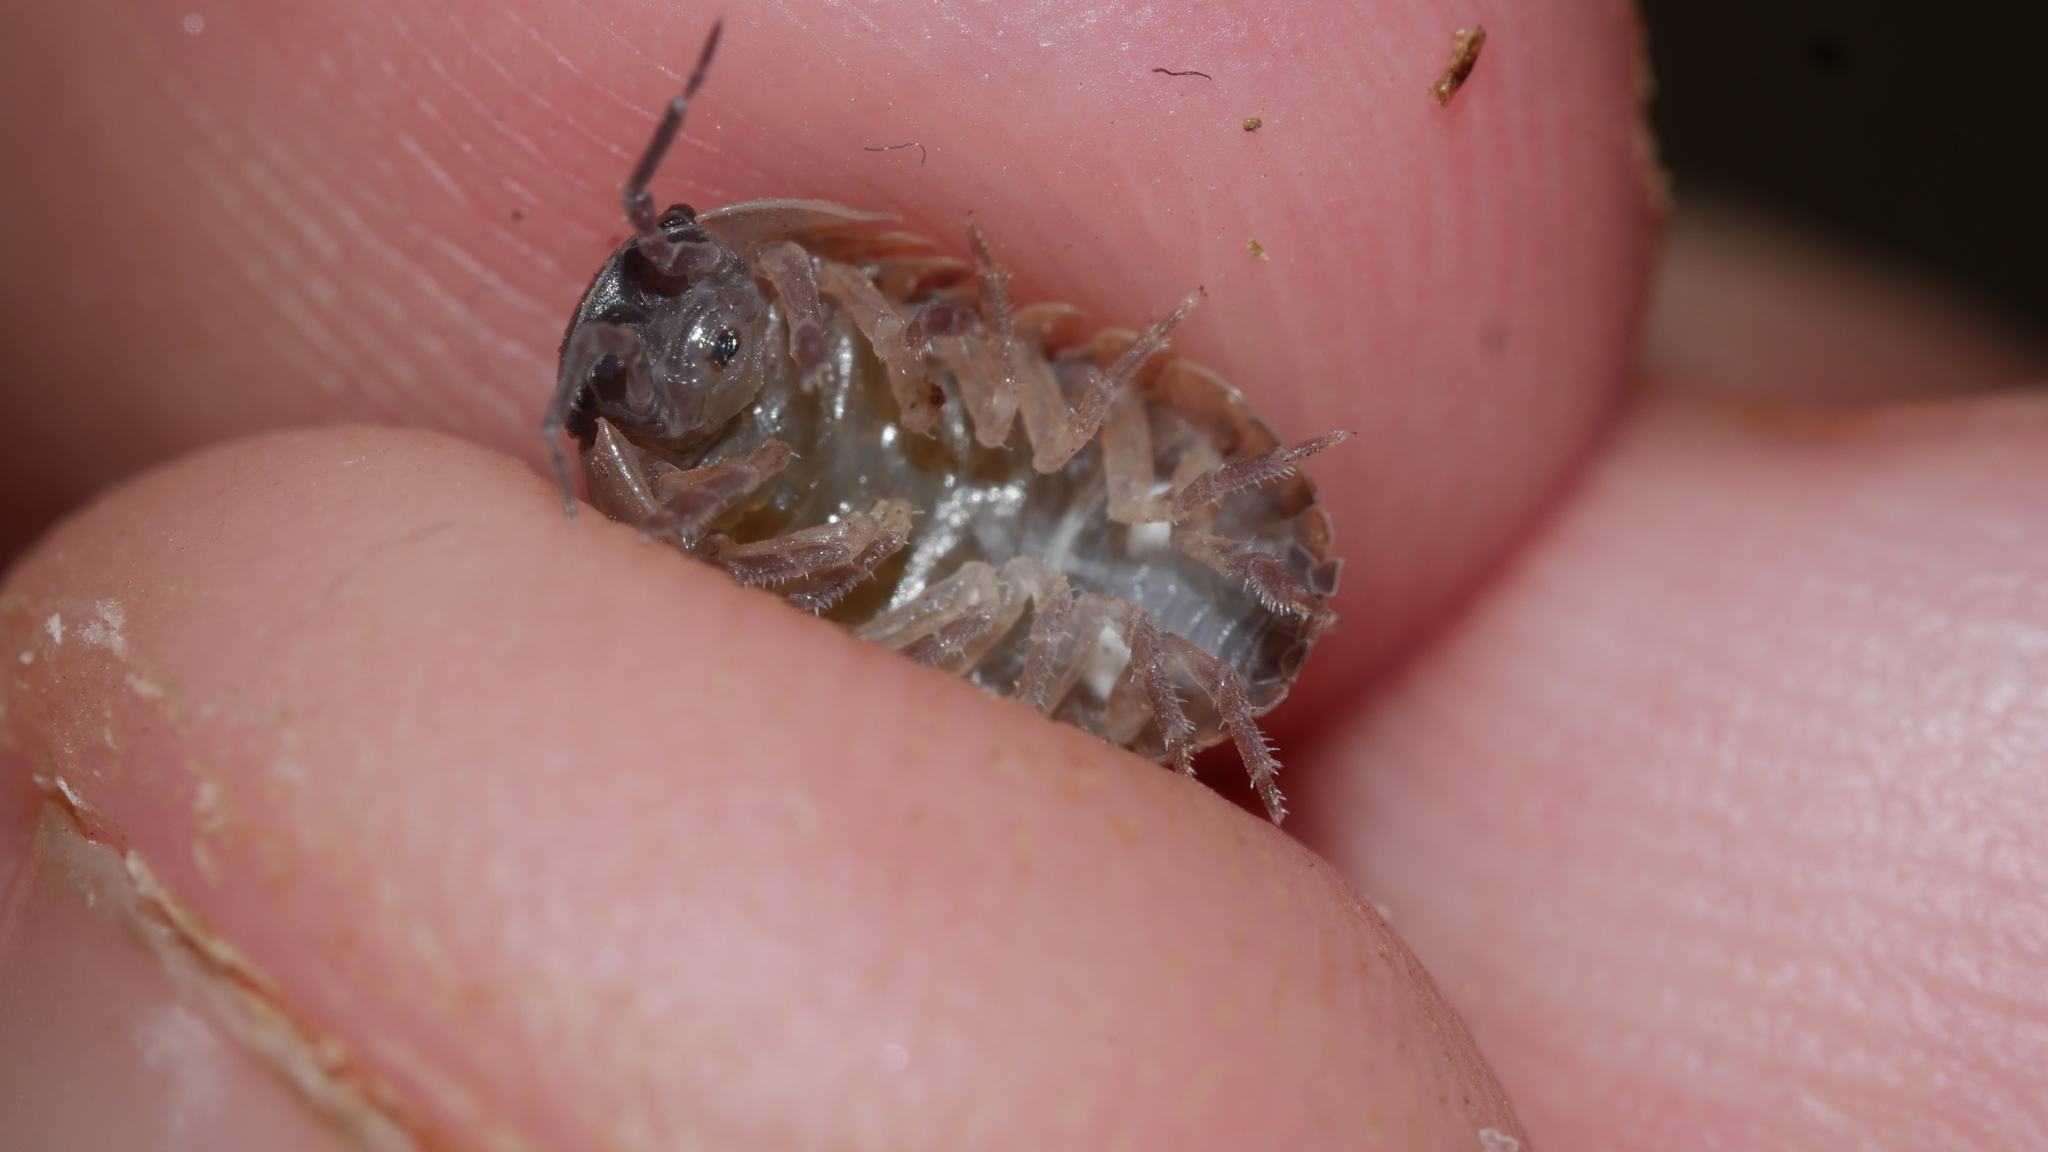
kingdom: Animalia
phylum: Arthropoda
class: Malacostraca
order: Isopoda
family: Armadillidiidae
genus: Armadillidium
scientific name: Armadillidium vulgare
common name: Common pill woodlouse
